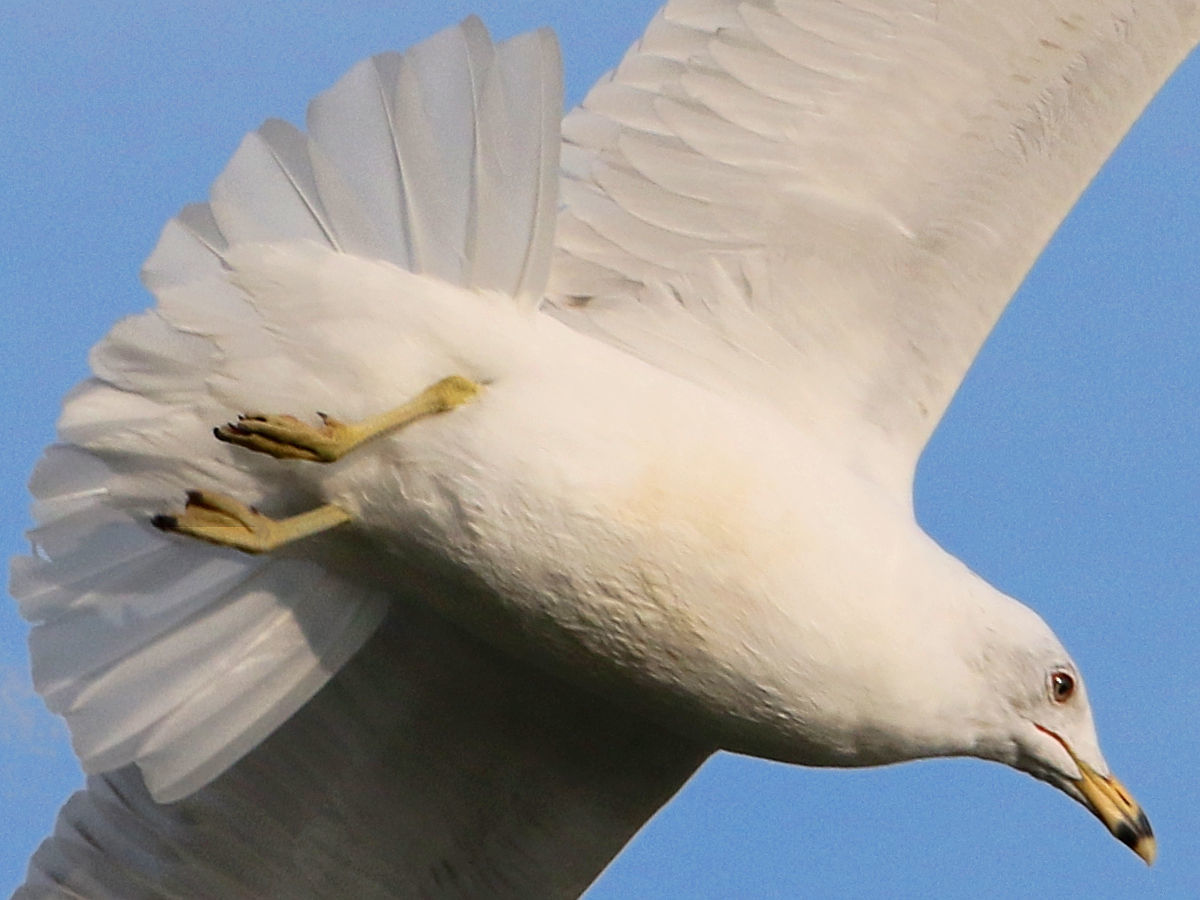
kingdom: Animalia
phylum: Chordata
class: Aves
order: Charadriiformes
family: Laridae
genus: Larus
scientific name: Larus delawarensis
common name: Ring-billed gull
